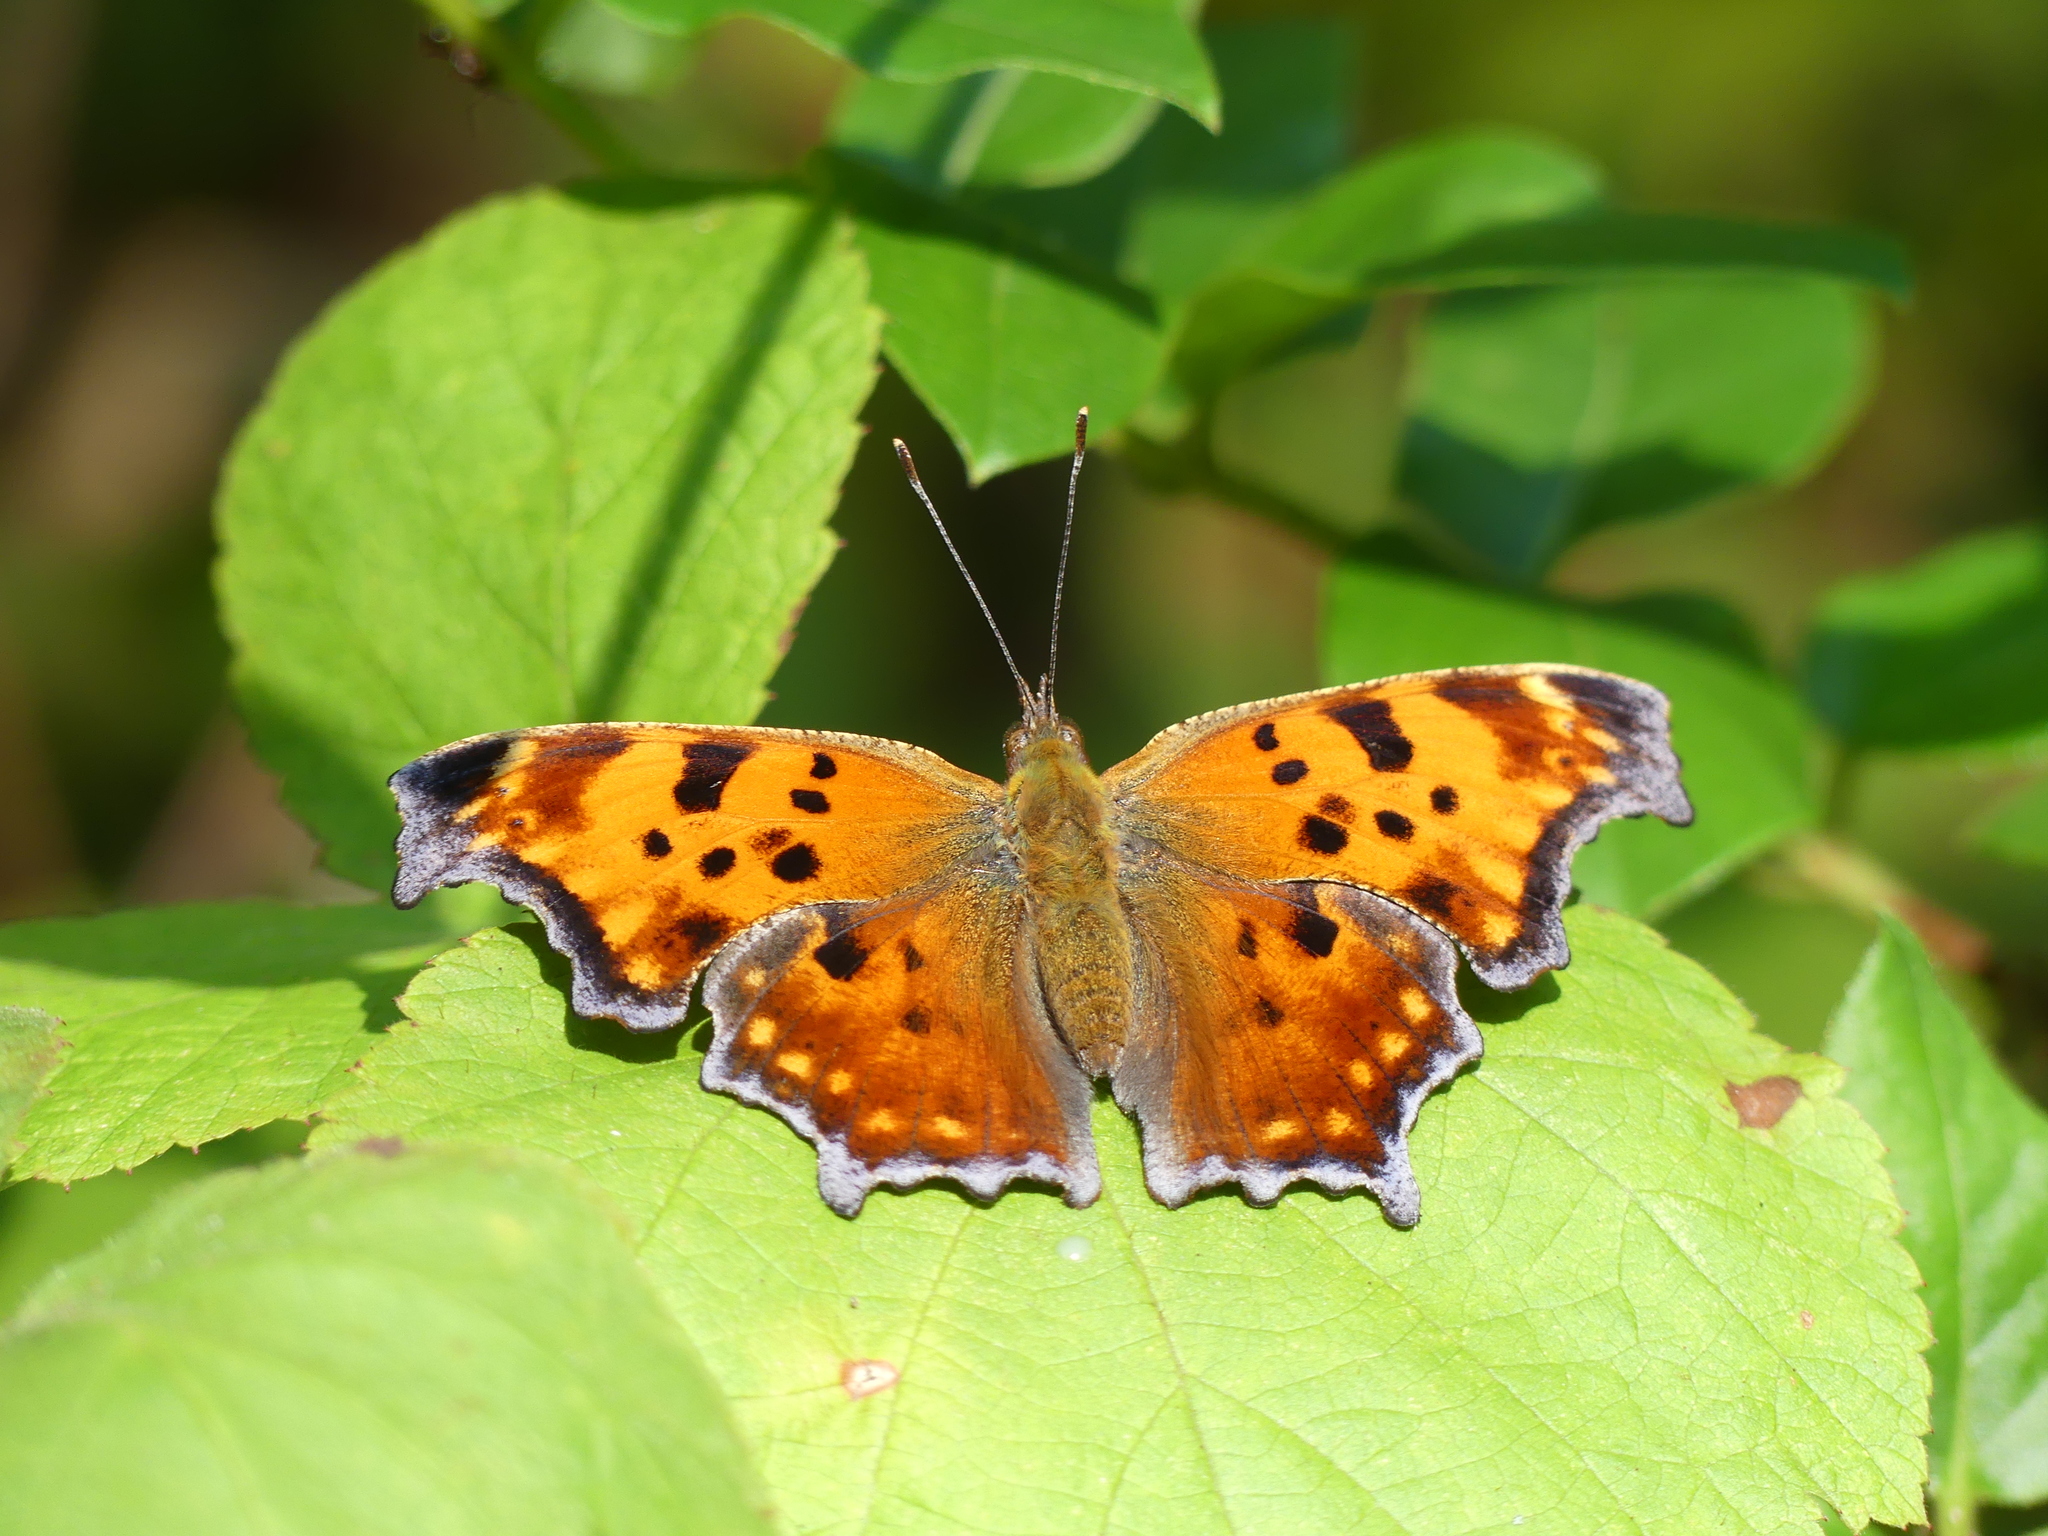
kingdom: Animalia
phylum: Arthropoda
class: Insecta
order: Lepidoptera
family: Nymphalidae
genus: Polygonia
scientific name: Polygonia comma
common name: Eastern comma
